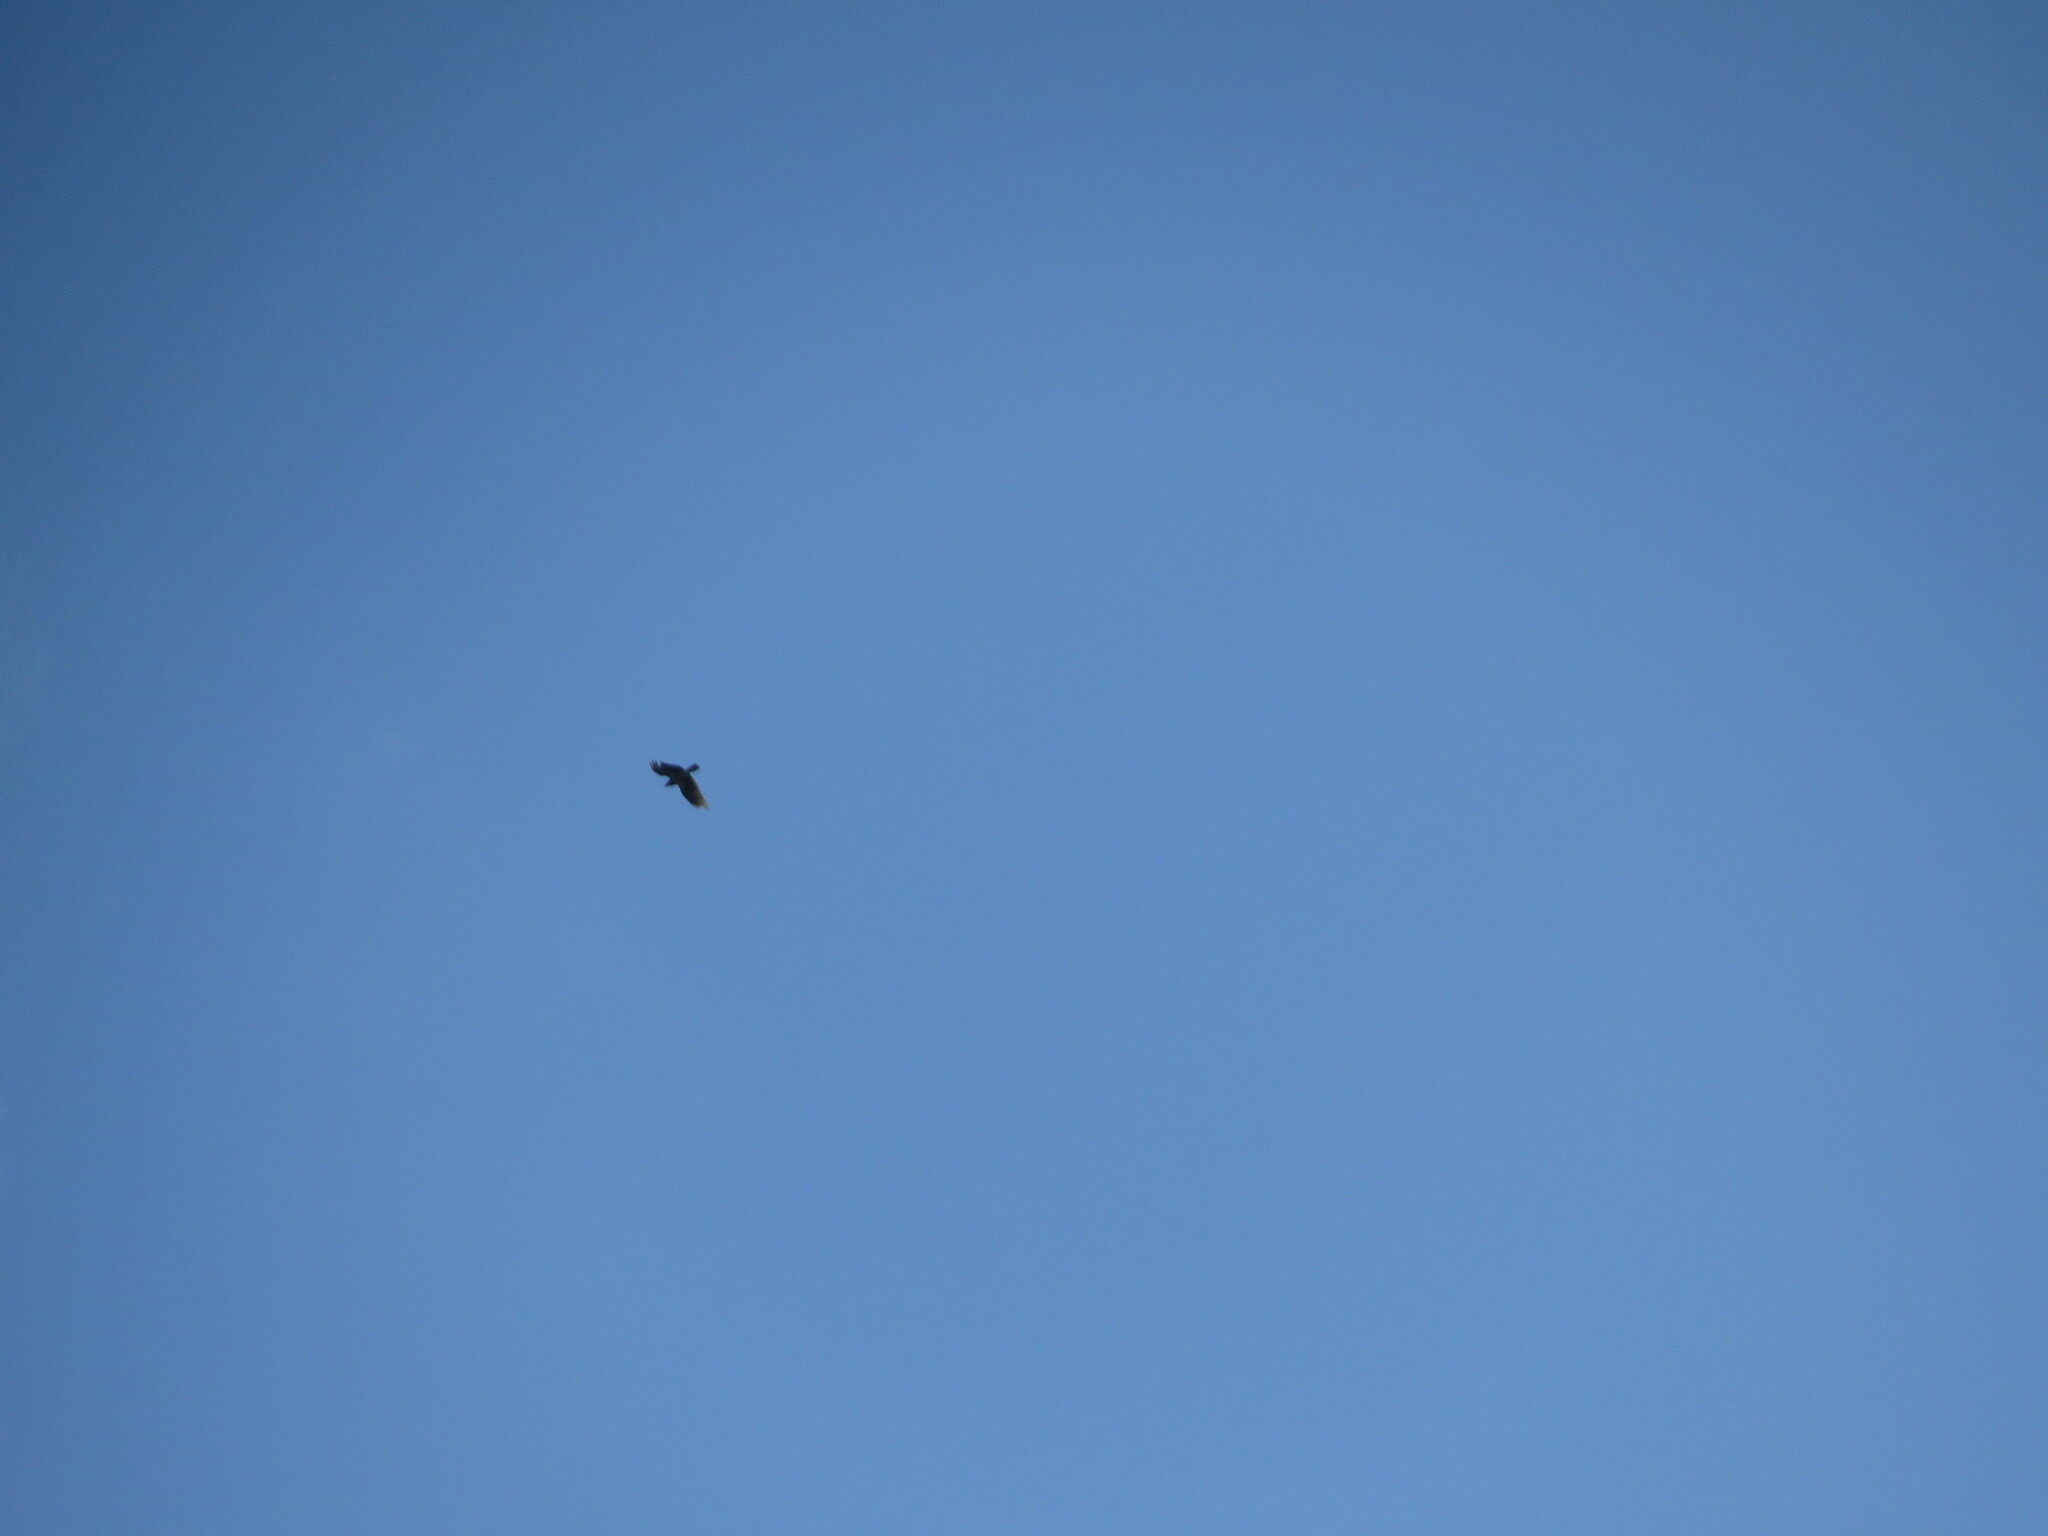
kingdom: Animalia
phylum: Chordata
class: Aves
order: Passeriformes
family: Corvidae
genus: Corvus
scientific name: Corvus cornix
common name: Hooded crow
